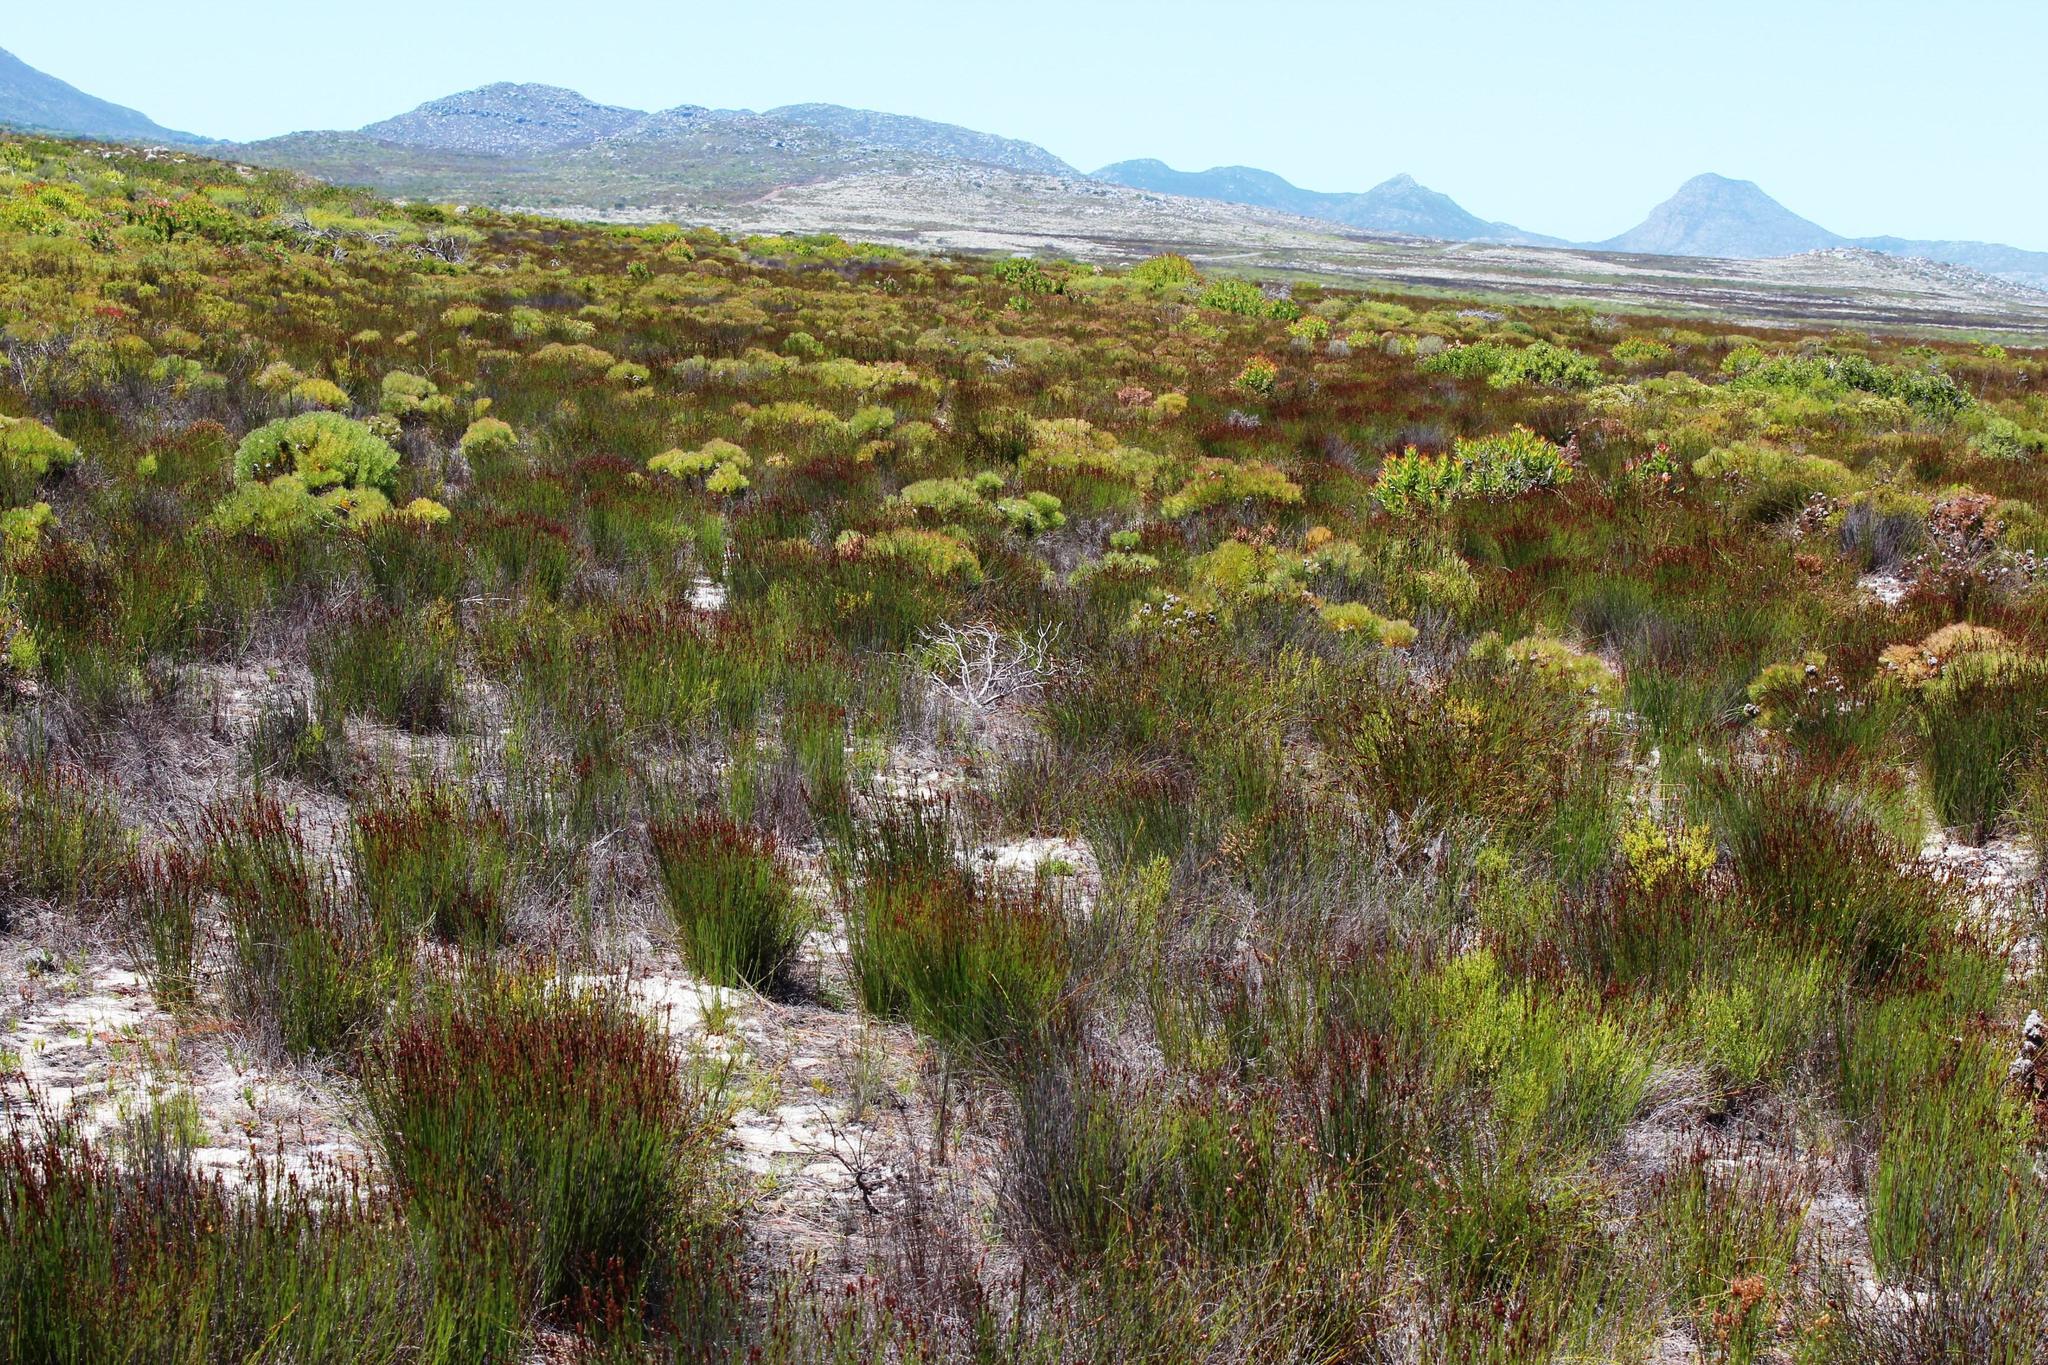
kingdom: Plantae
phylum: Tracheophyta
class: Magnoliopsida
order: Proteales
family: Proteaceae
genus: Serruria
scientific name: Serruria glomerata
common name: Cluster spiderhead
